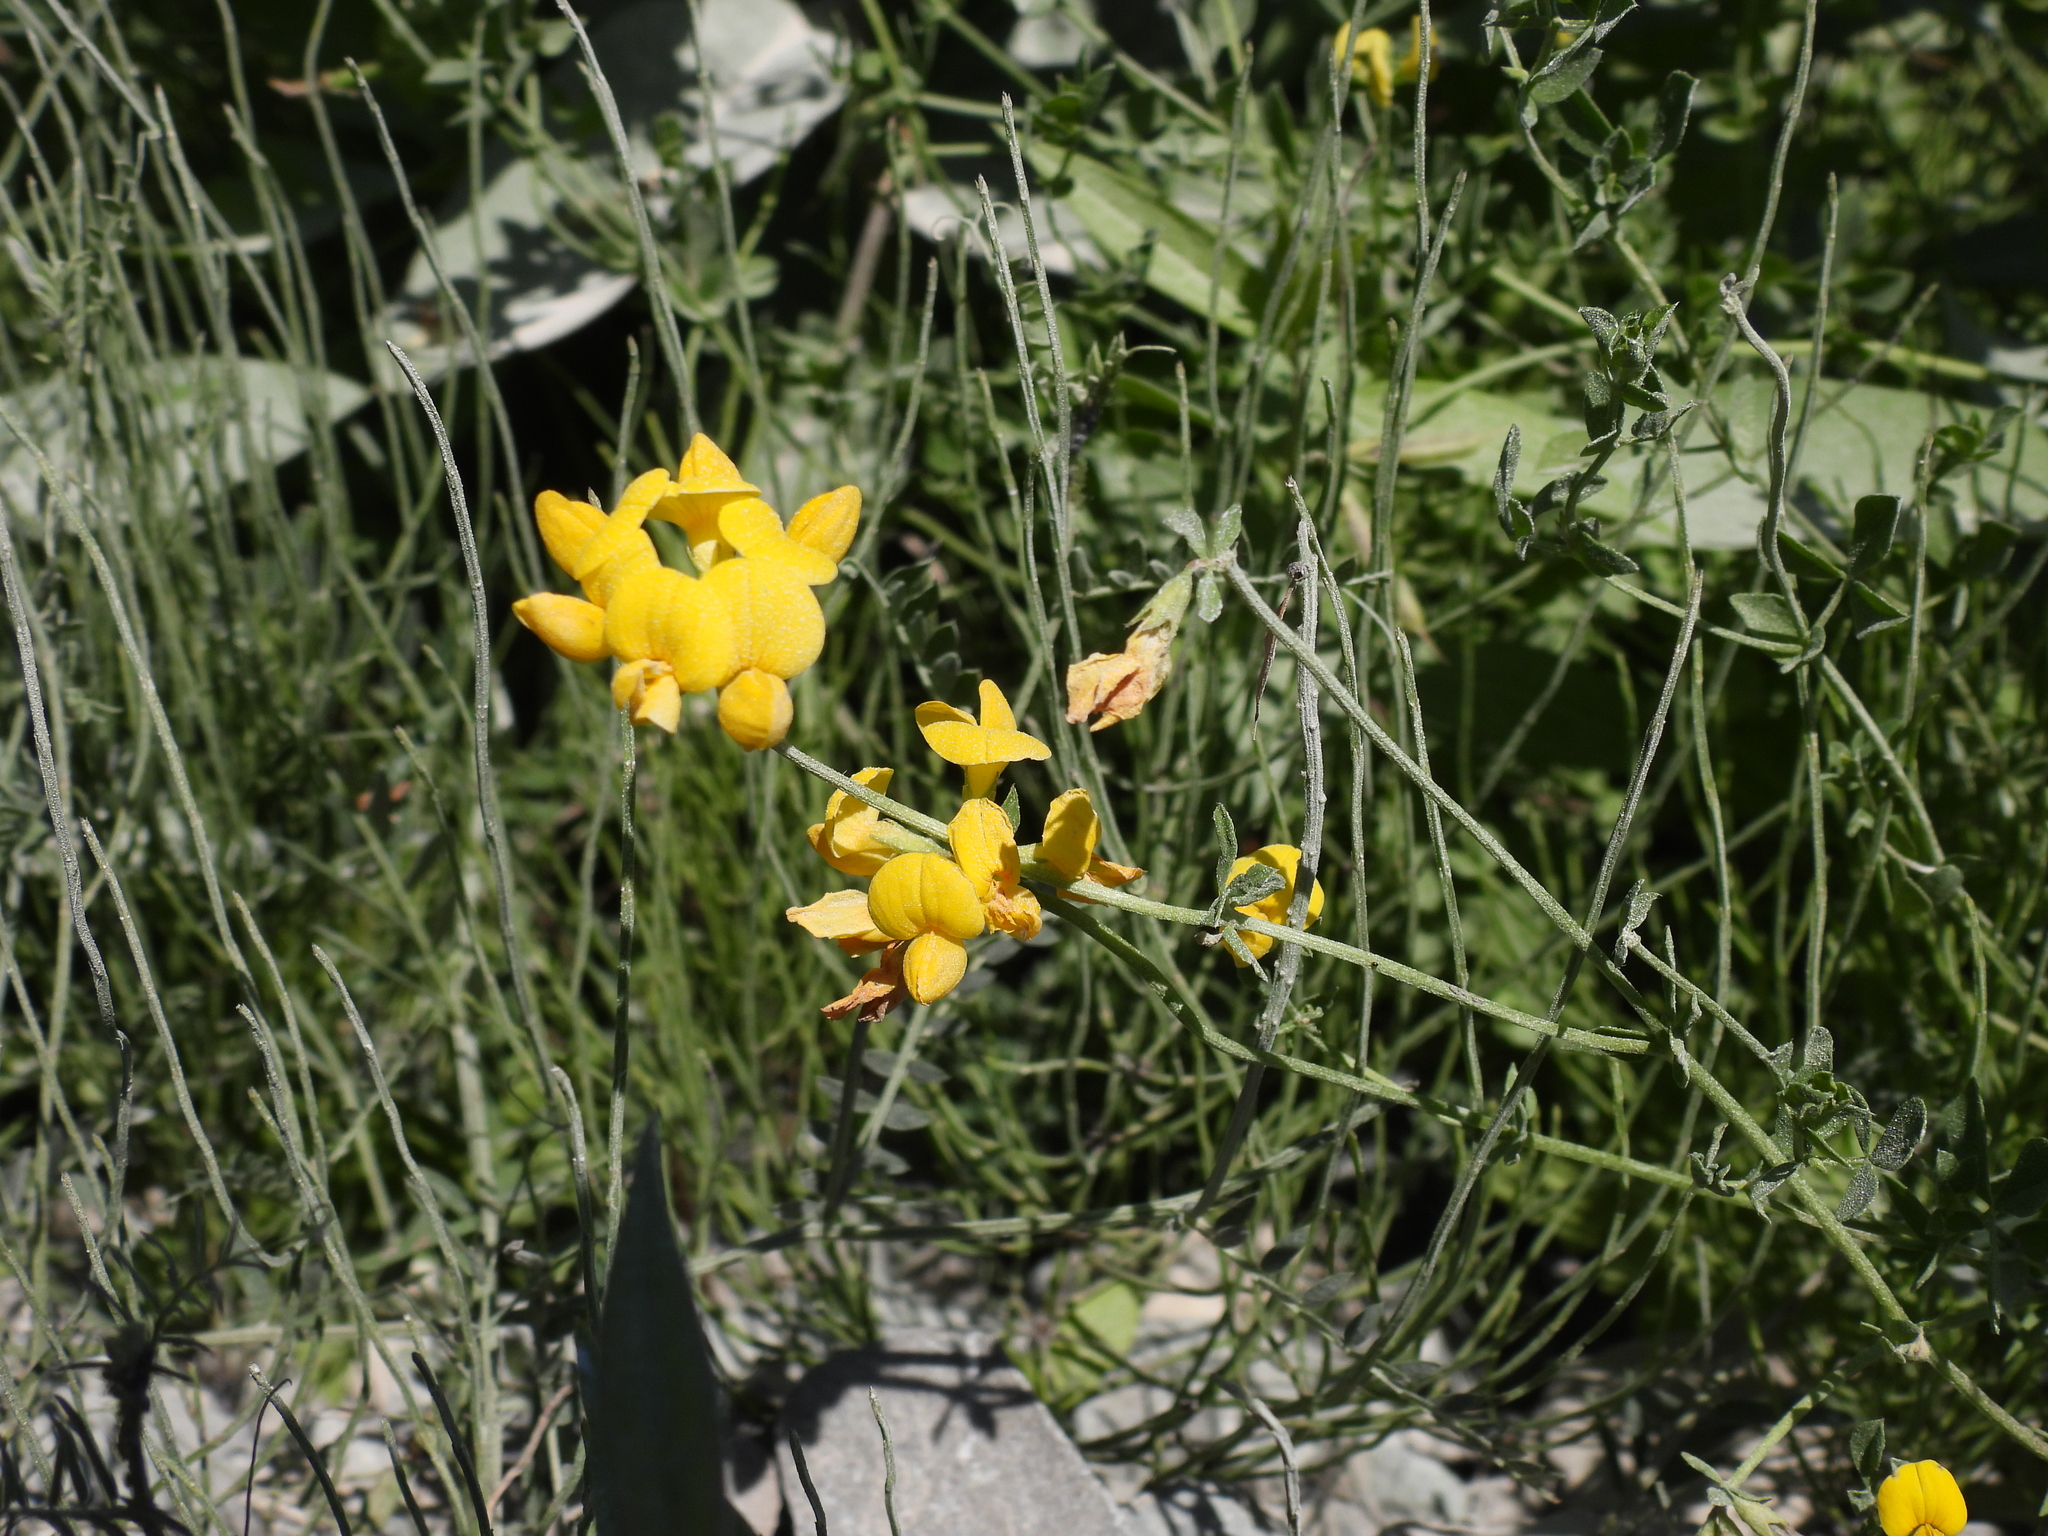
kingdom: Plantae
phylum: Tracheophyta
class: Magnoliopsida
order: Fabales
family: Fabaceae
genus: Lotus
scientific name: Lotus corniculatus
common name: Common bird's-foot-trefoil
